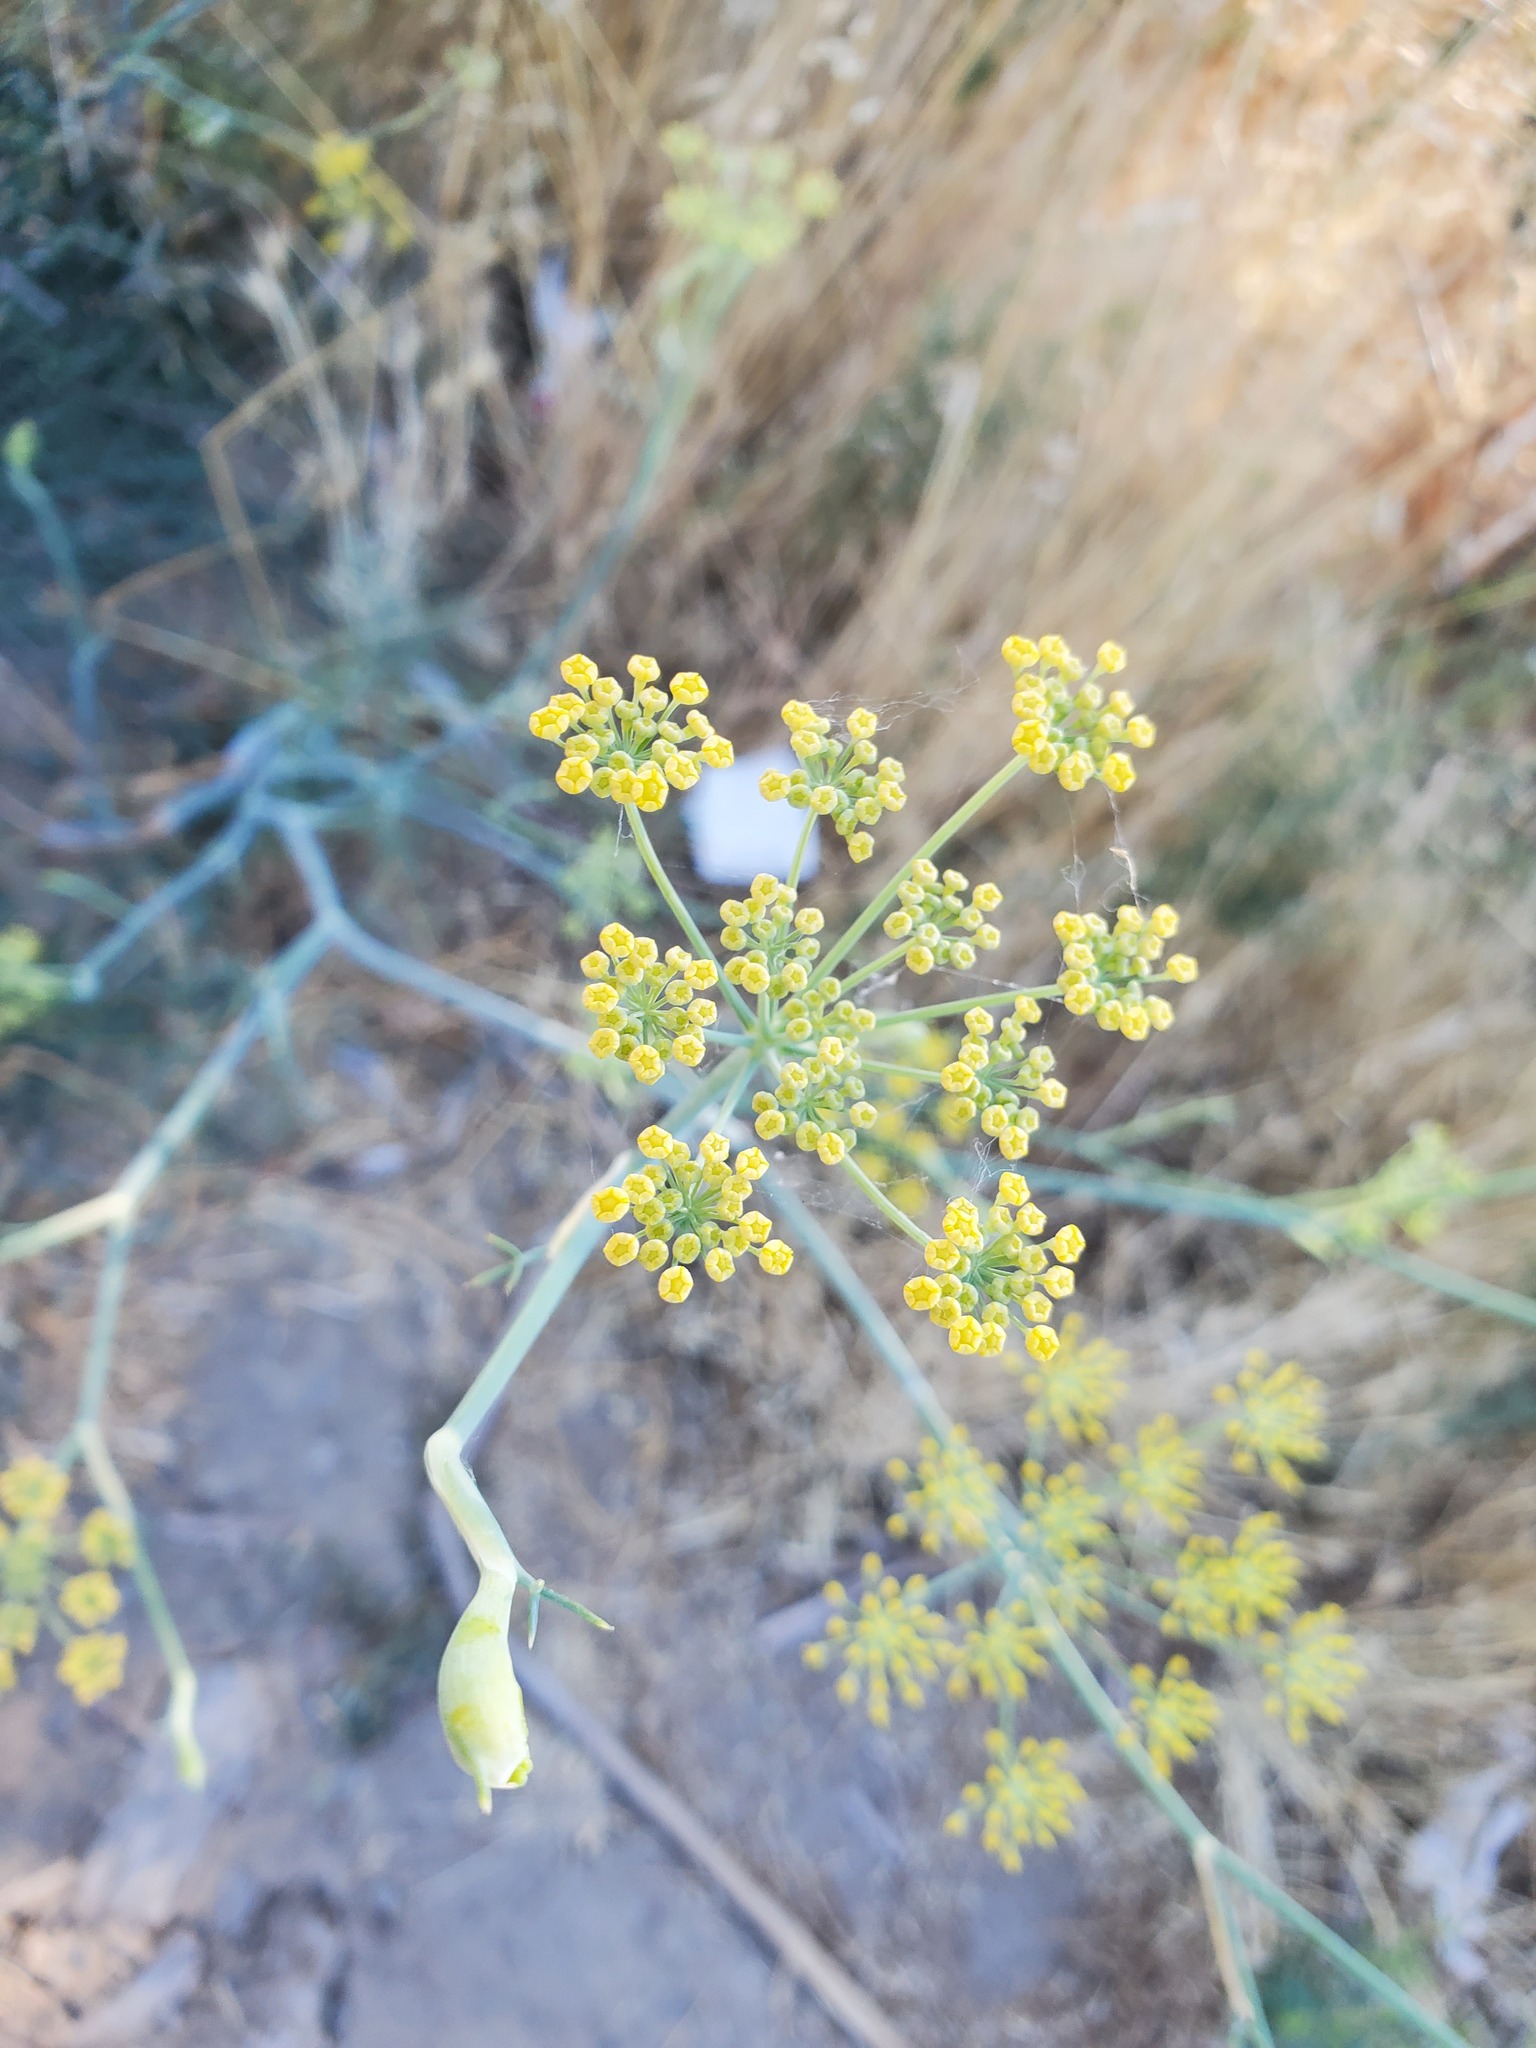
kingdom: Plantae
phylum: Tracheophyta
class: Magnoliopsida
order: Apiales
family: Apiaceae
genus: Foeniculum
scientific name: Foeniculum vulgare
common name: Fennel
